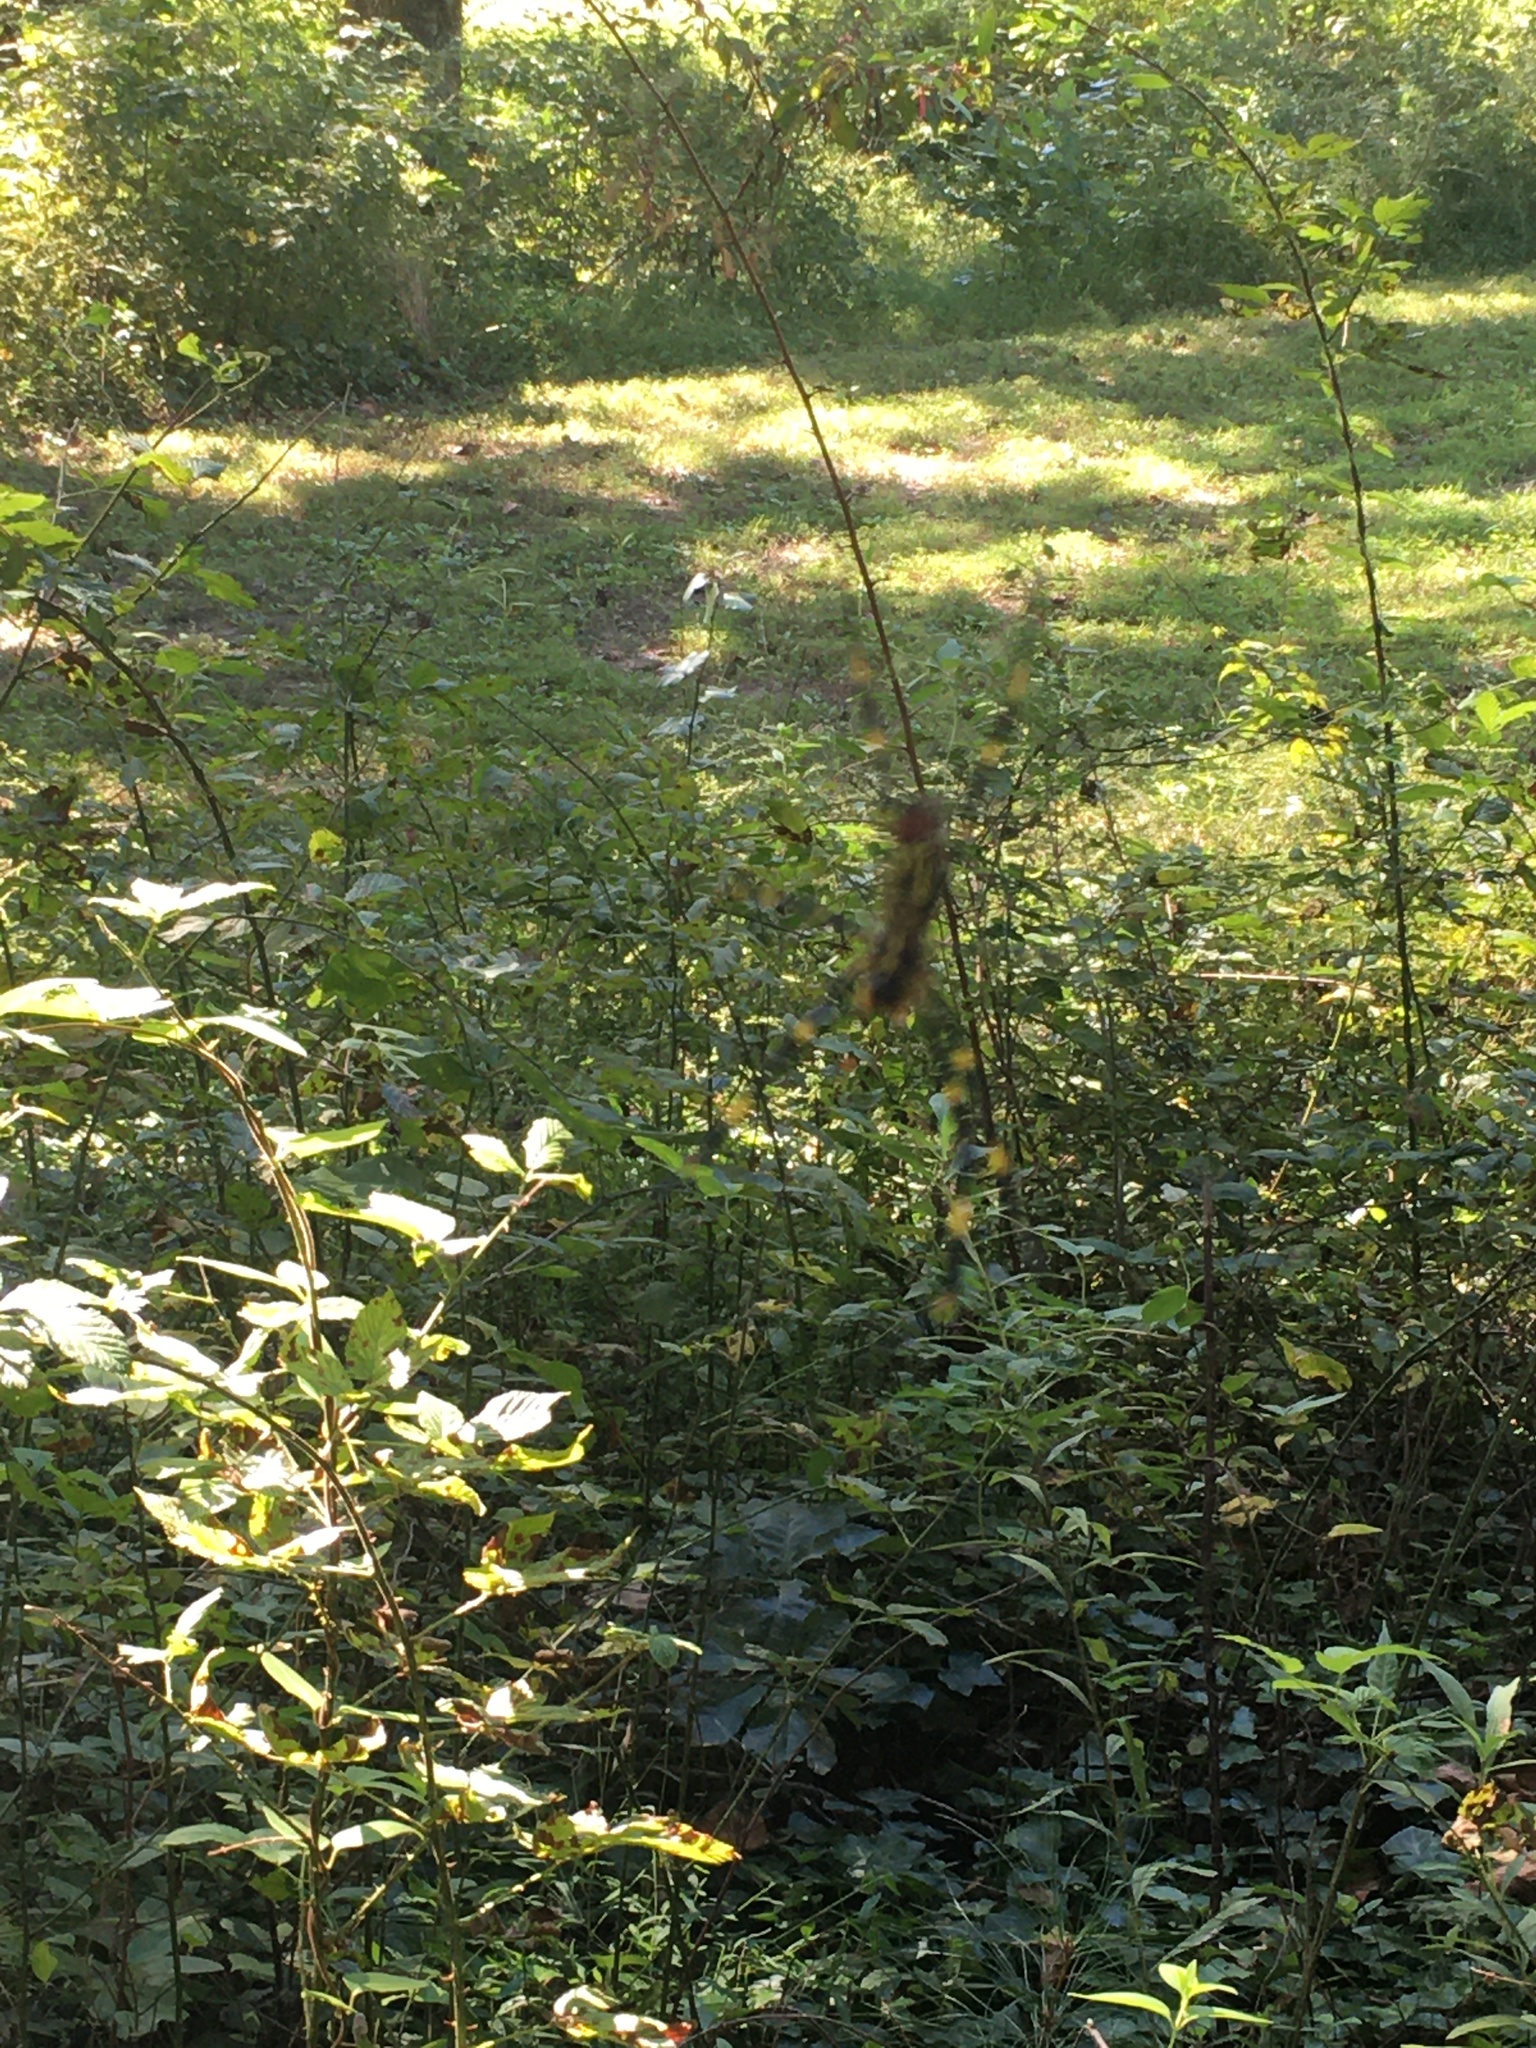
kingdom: Animalia
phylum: Arthropoda
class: Arachnida
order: Araneae
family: Araneidae
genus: Trichonephila
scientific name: Trichonephila clavata
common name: Jorō spider
